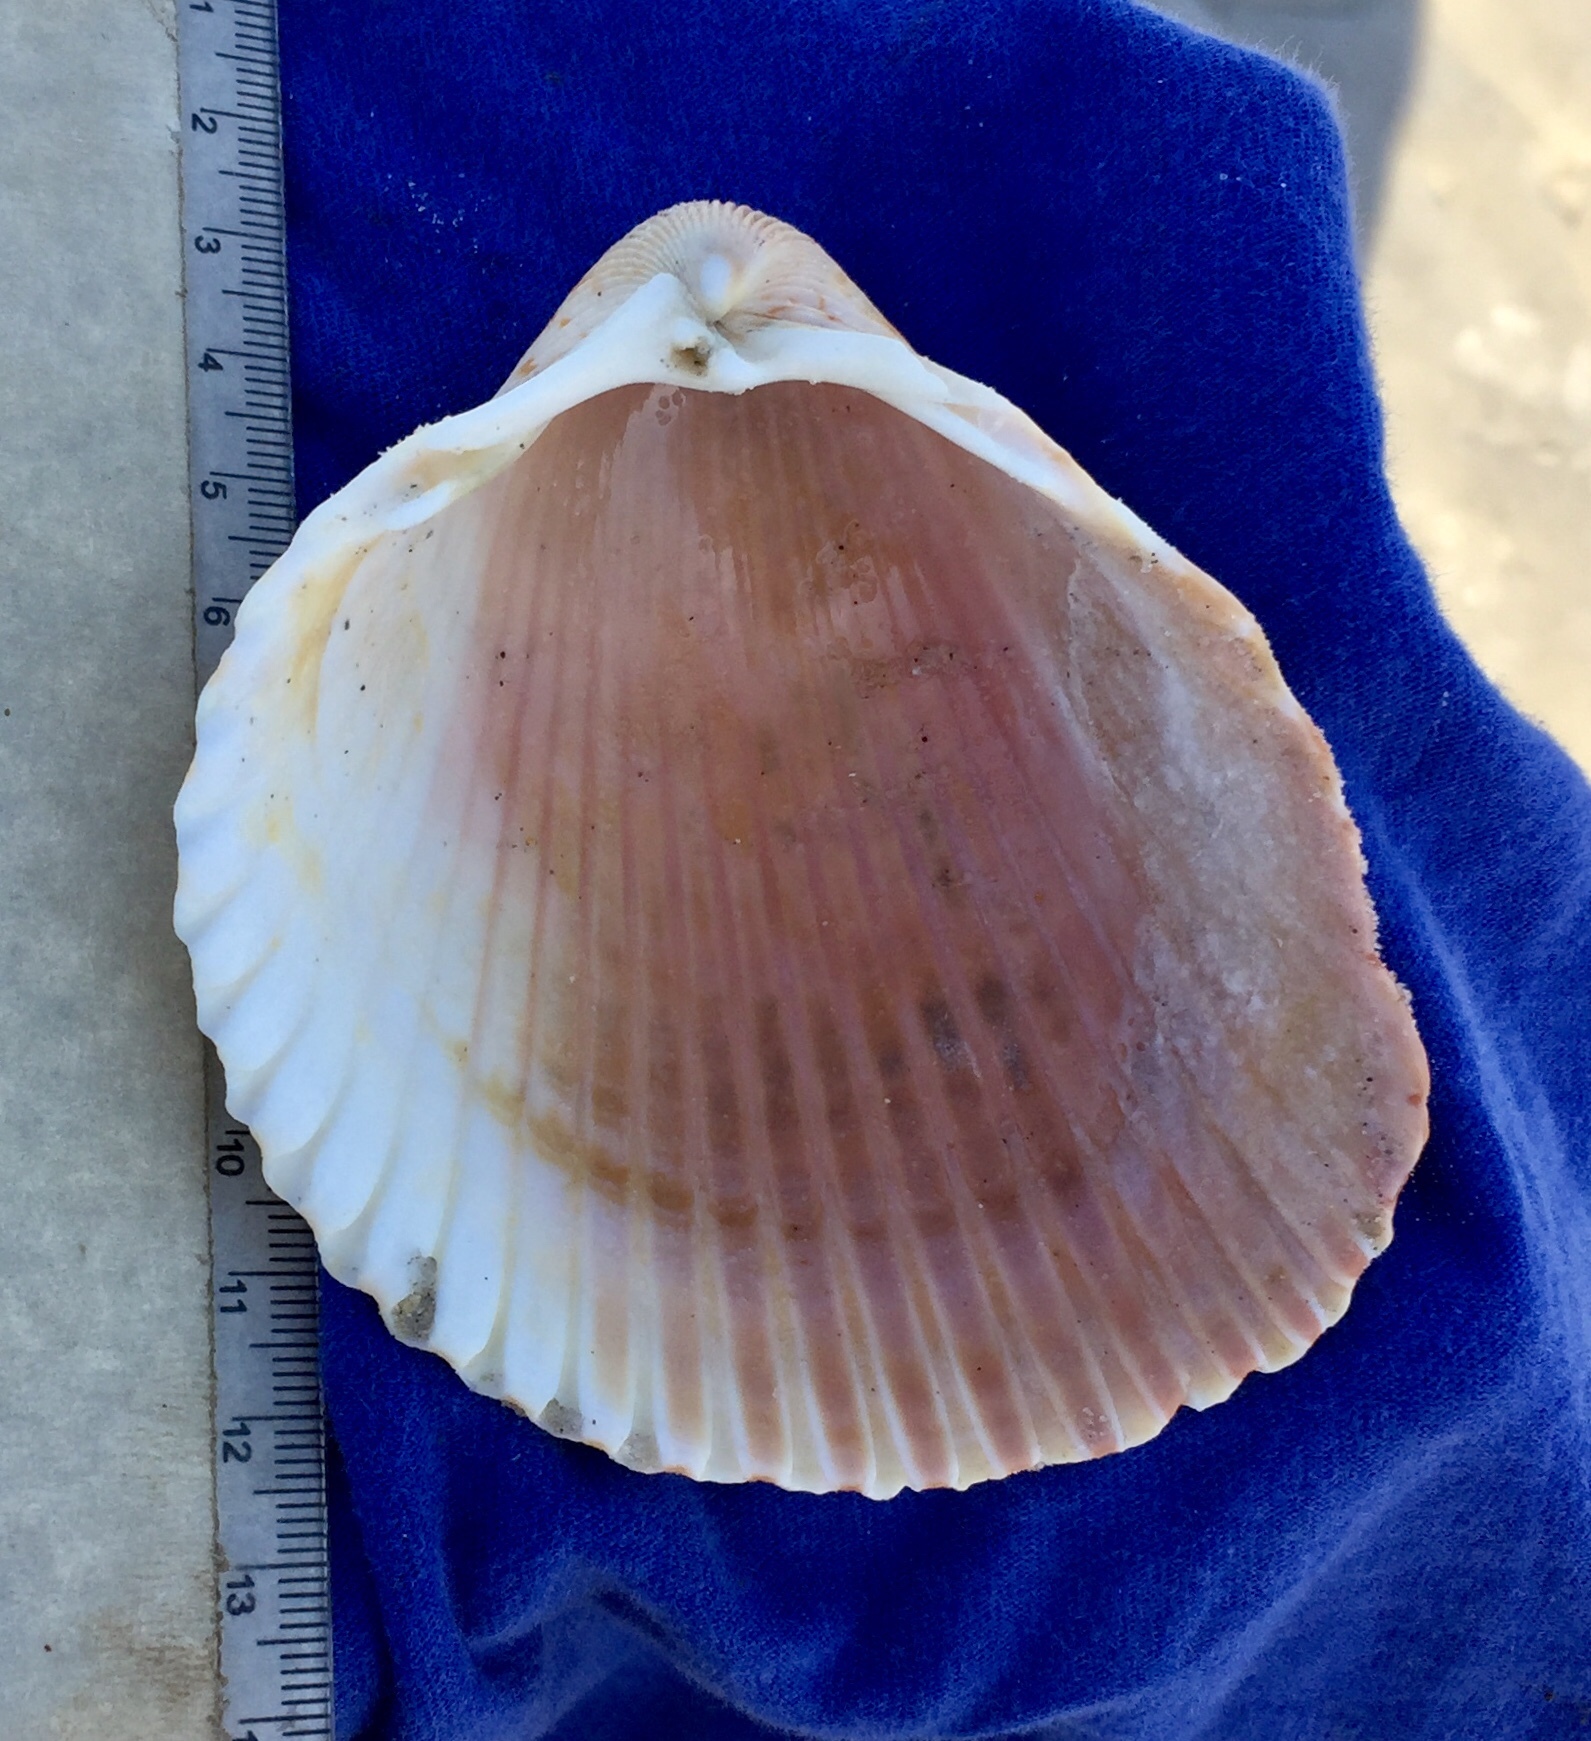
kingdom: Animalia
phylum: Mollusca
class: Bivalvia
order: Cardiida
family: Cardiidae
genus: Dinocardium
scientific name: Dinocardium robustum
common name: Atlantic giant cockle
